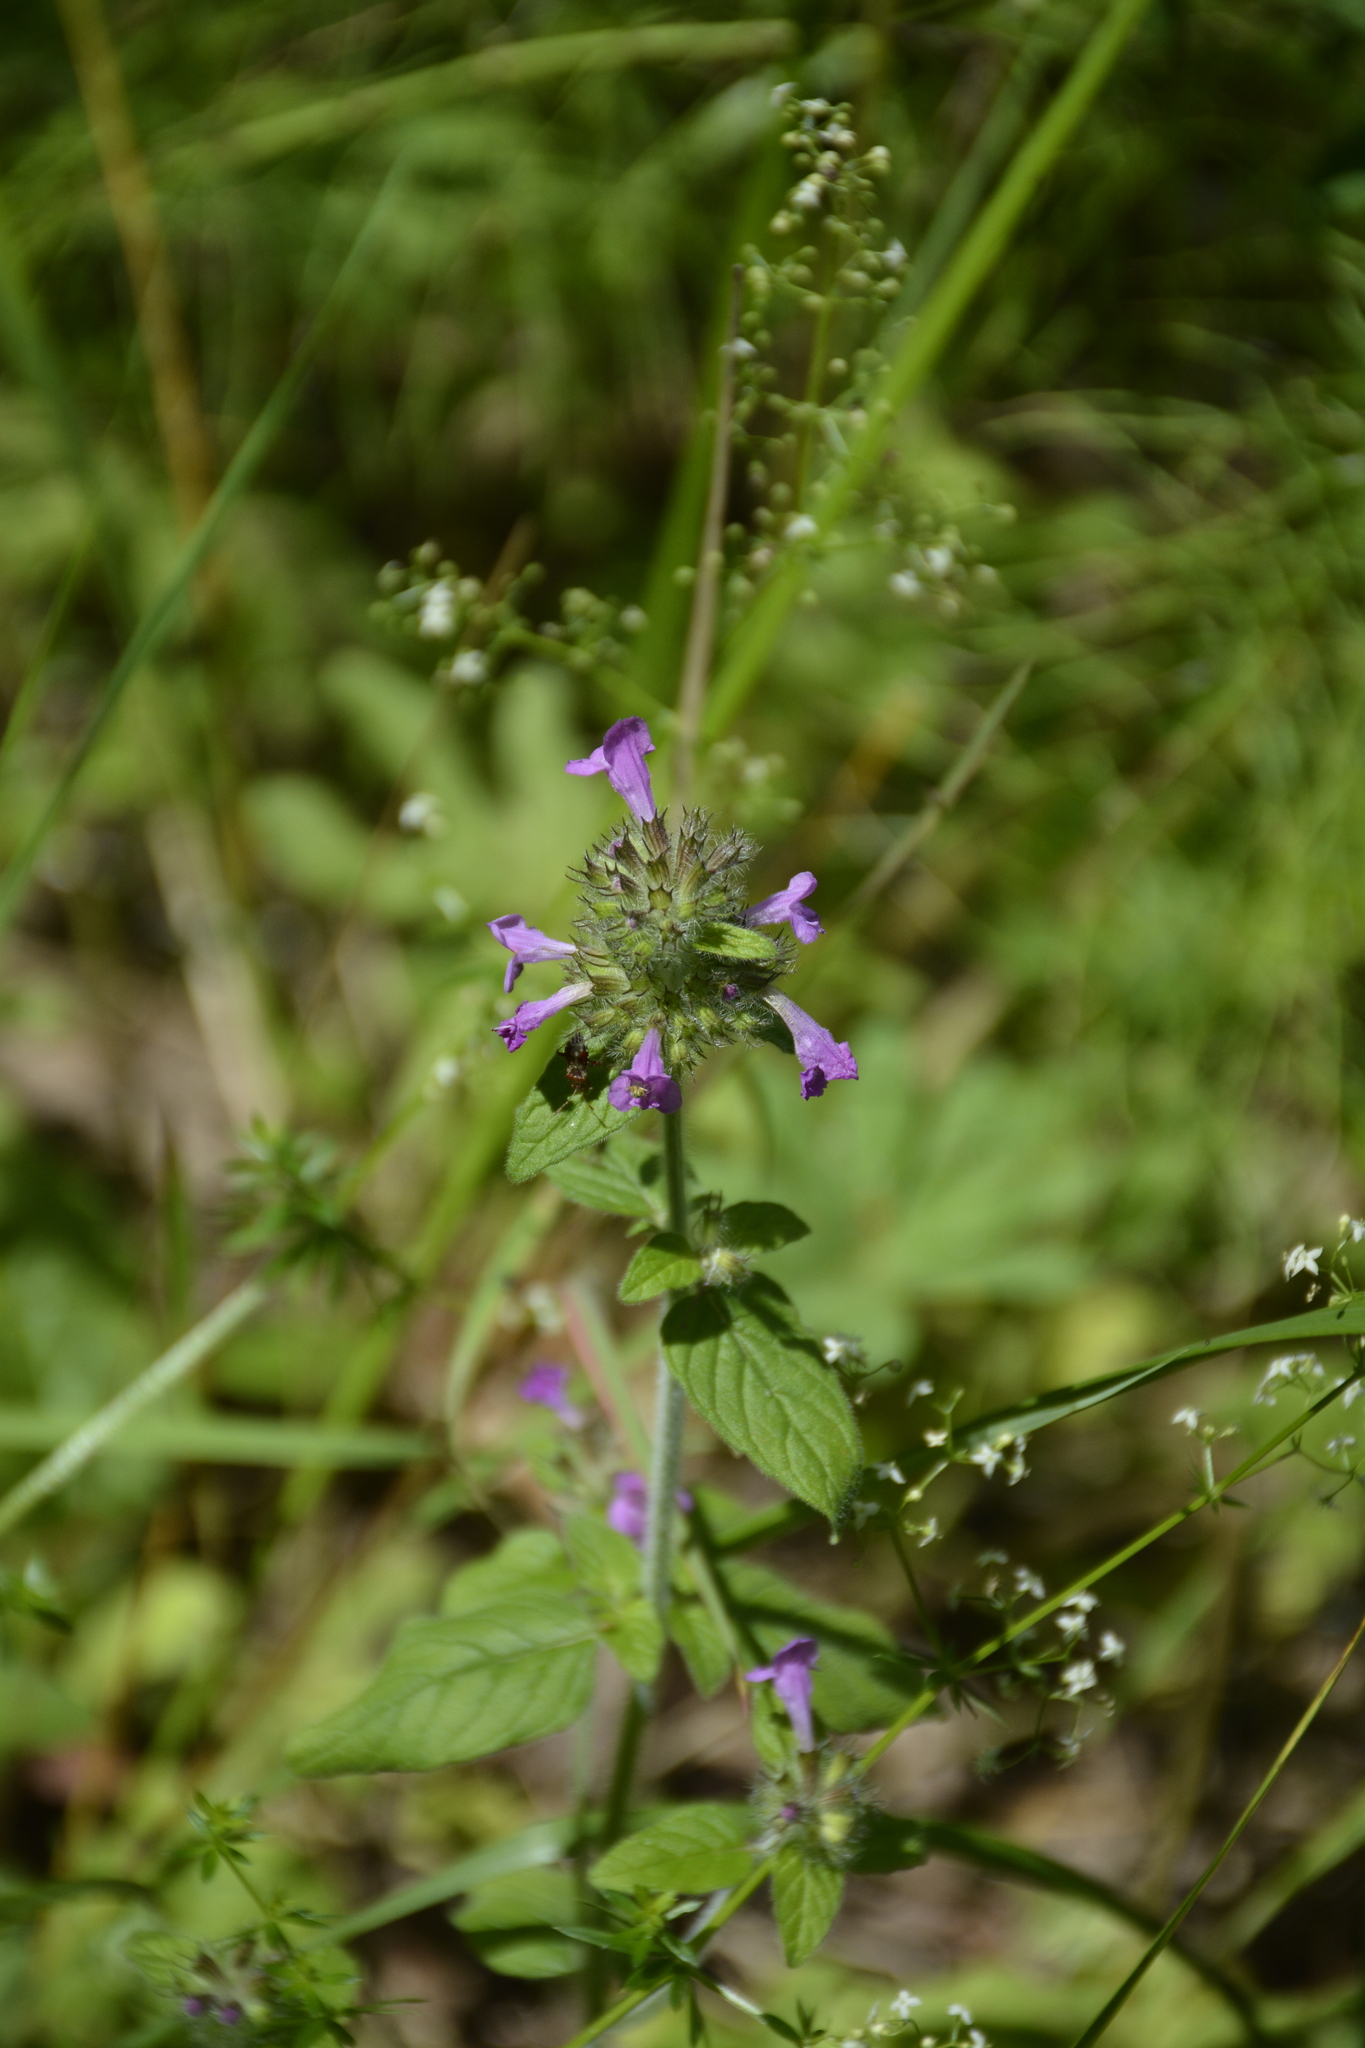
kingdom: Plantae
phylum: Tracheophyta
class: Magnoliopsida
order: Lamiales
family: Lamiaceae
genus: Clinopodium
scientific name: Clinopodium vulgare
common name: Wild basil
